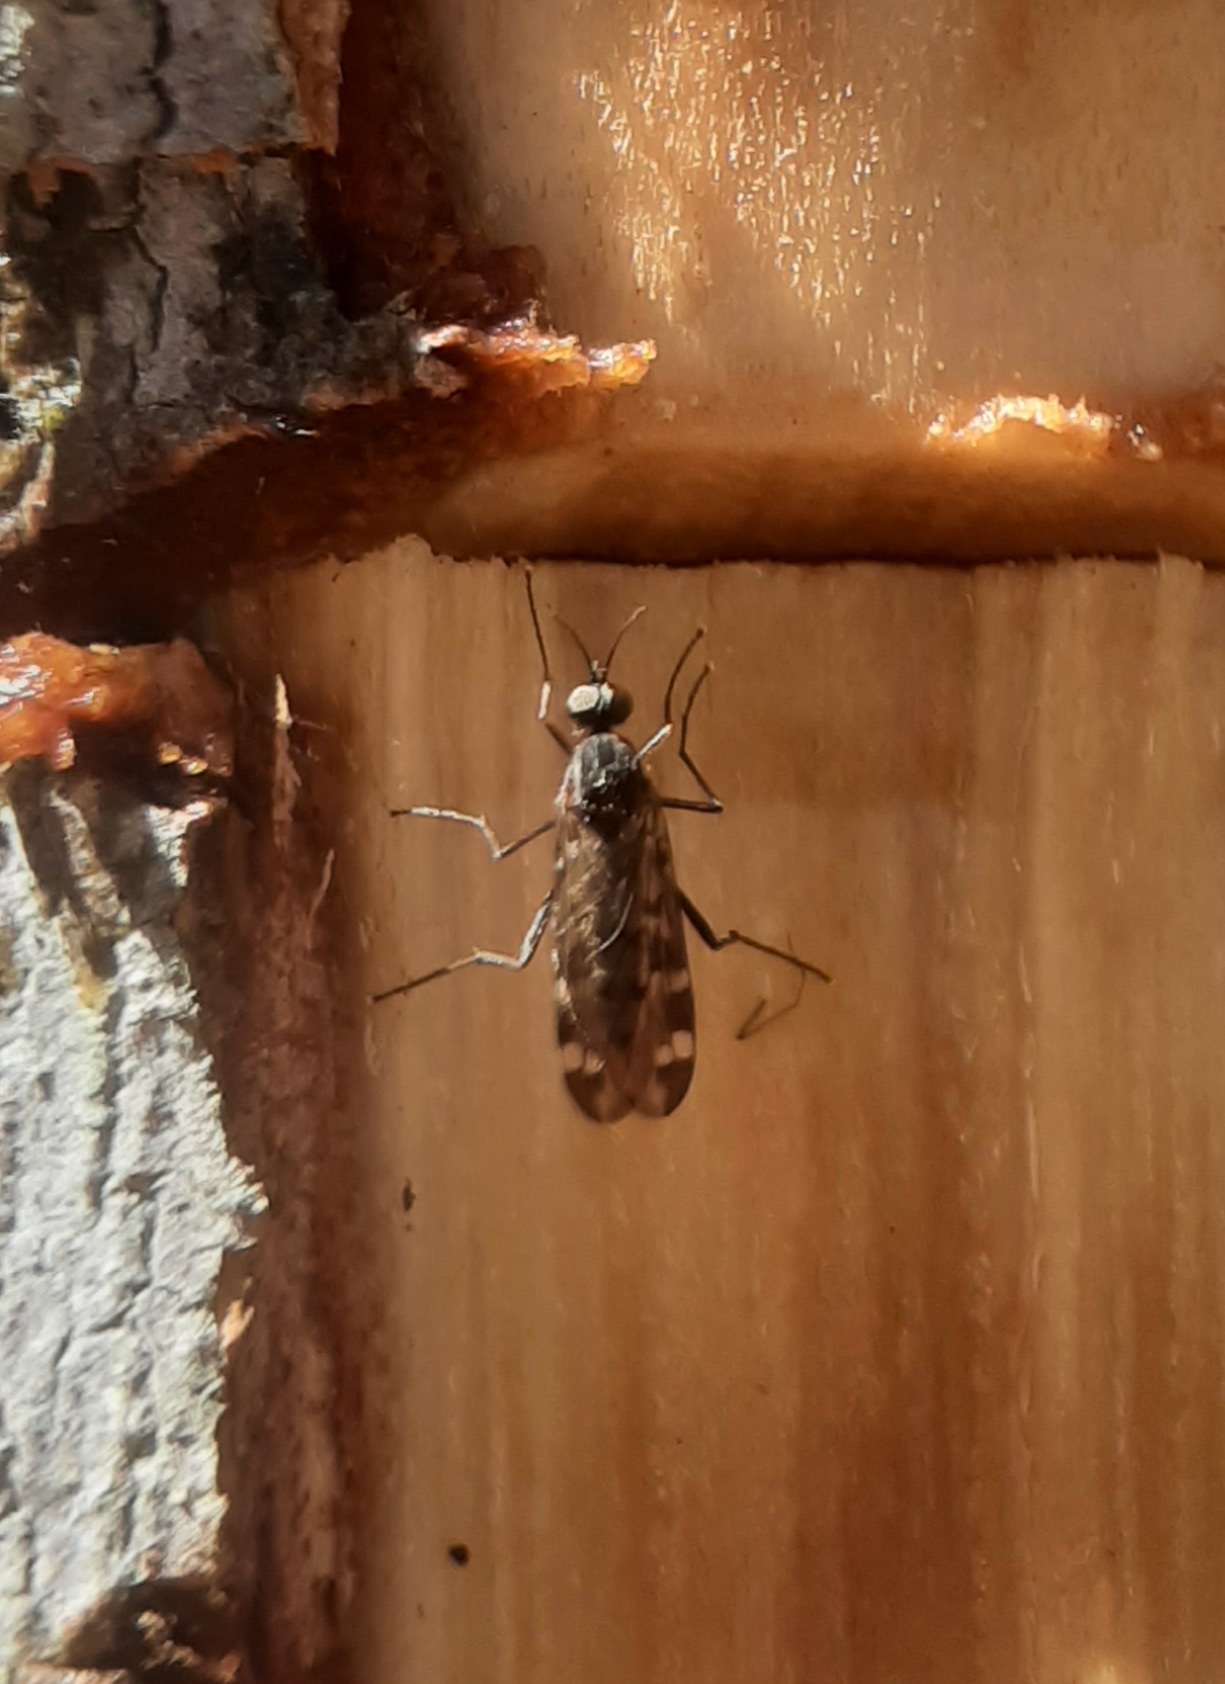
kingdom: Animalia
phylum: Arthropoda
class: Insecta
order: Diptera
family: Anisopodidae
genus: Sylvicola
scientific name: Sylvicola alternata
